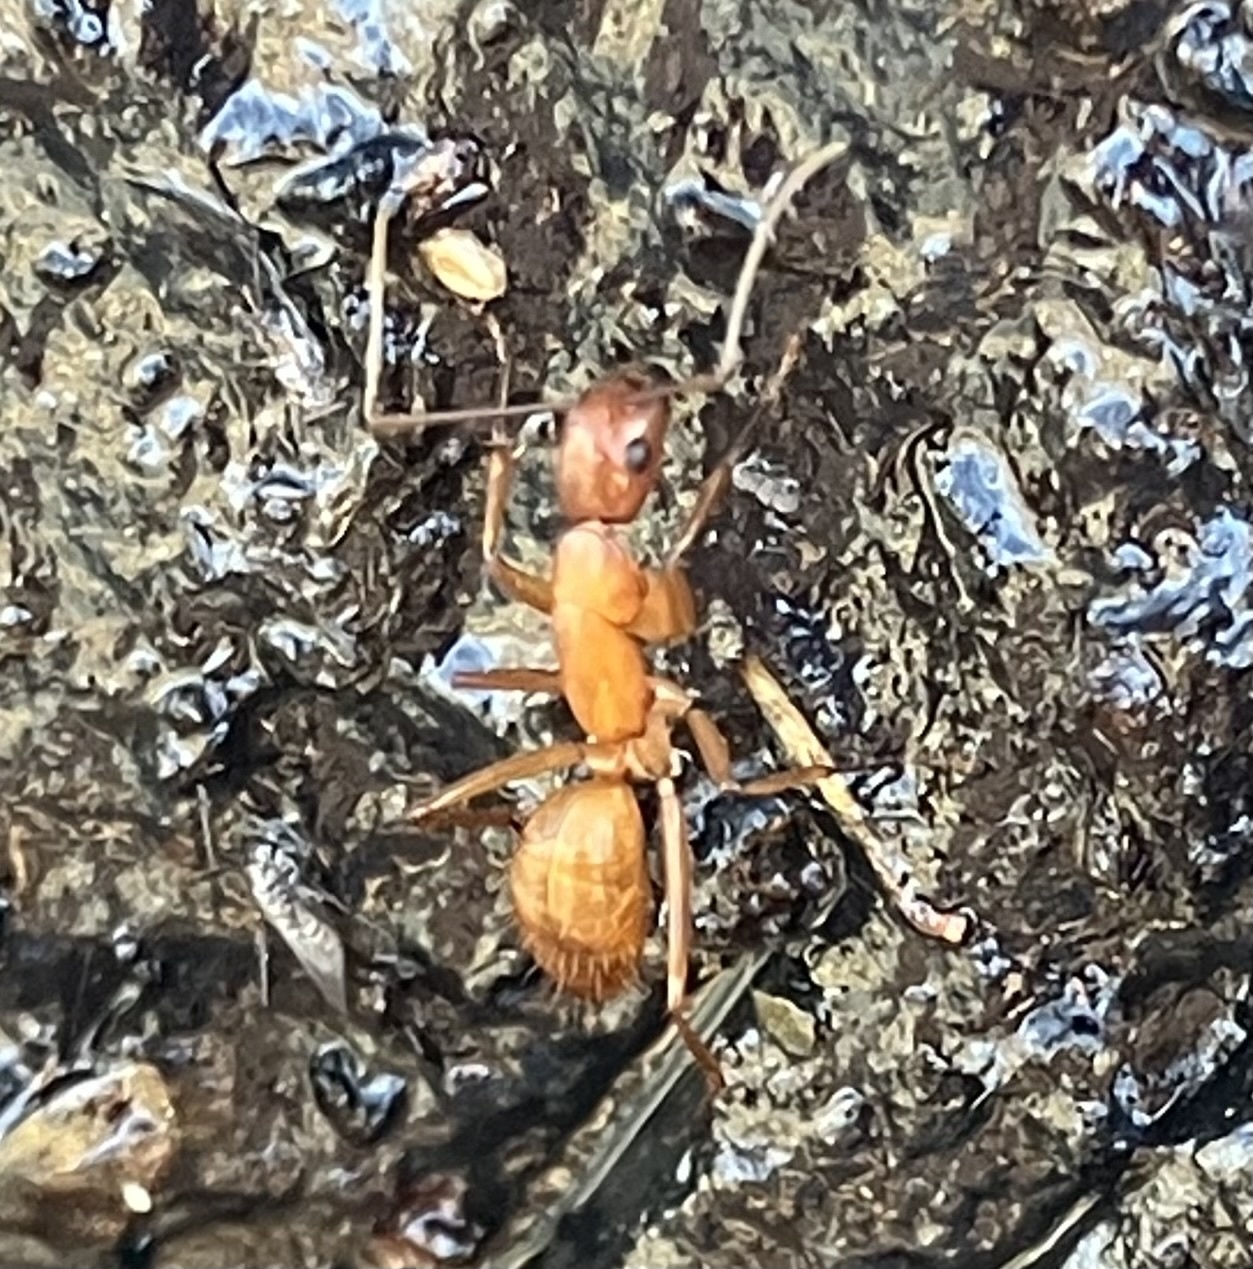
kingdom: Animalia
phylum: Arthropoda
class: Insecta
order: Hymenoptera
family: Formicidae
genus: Camponotus
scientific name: Camponotus castaneus
